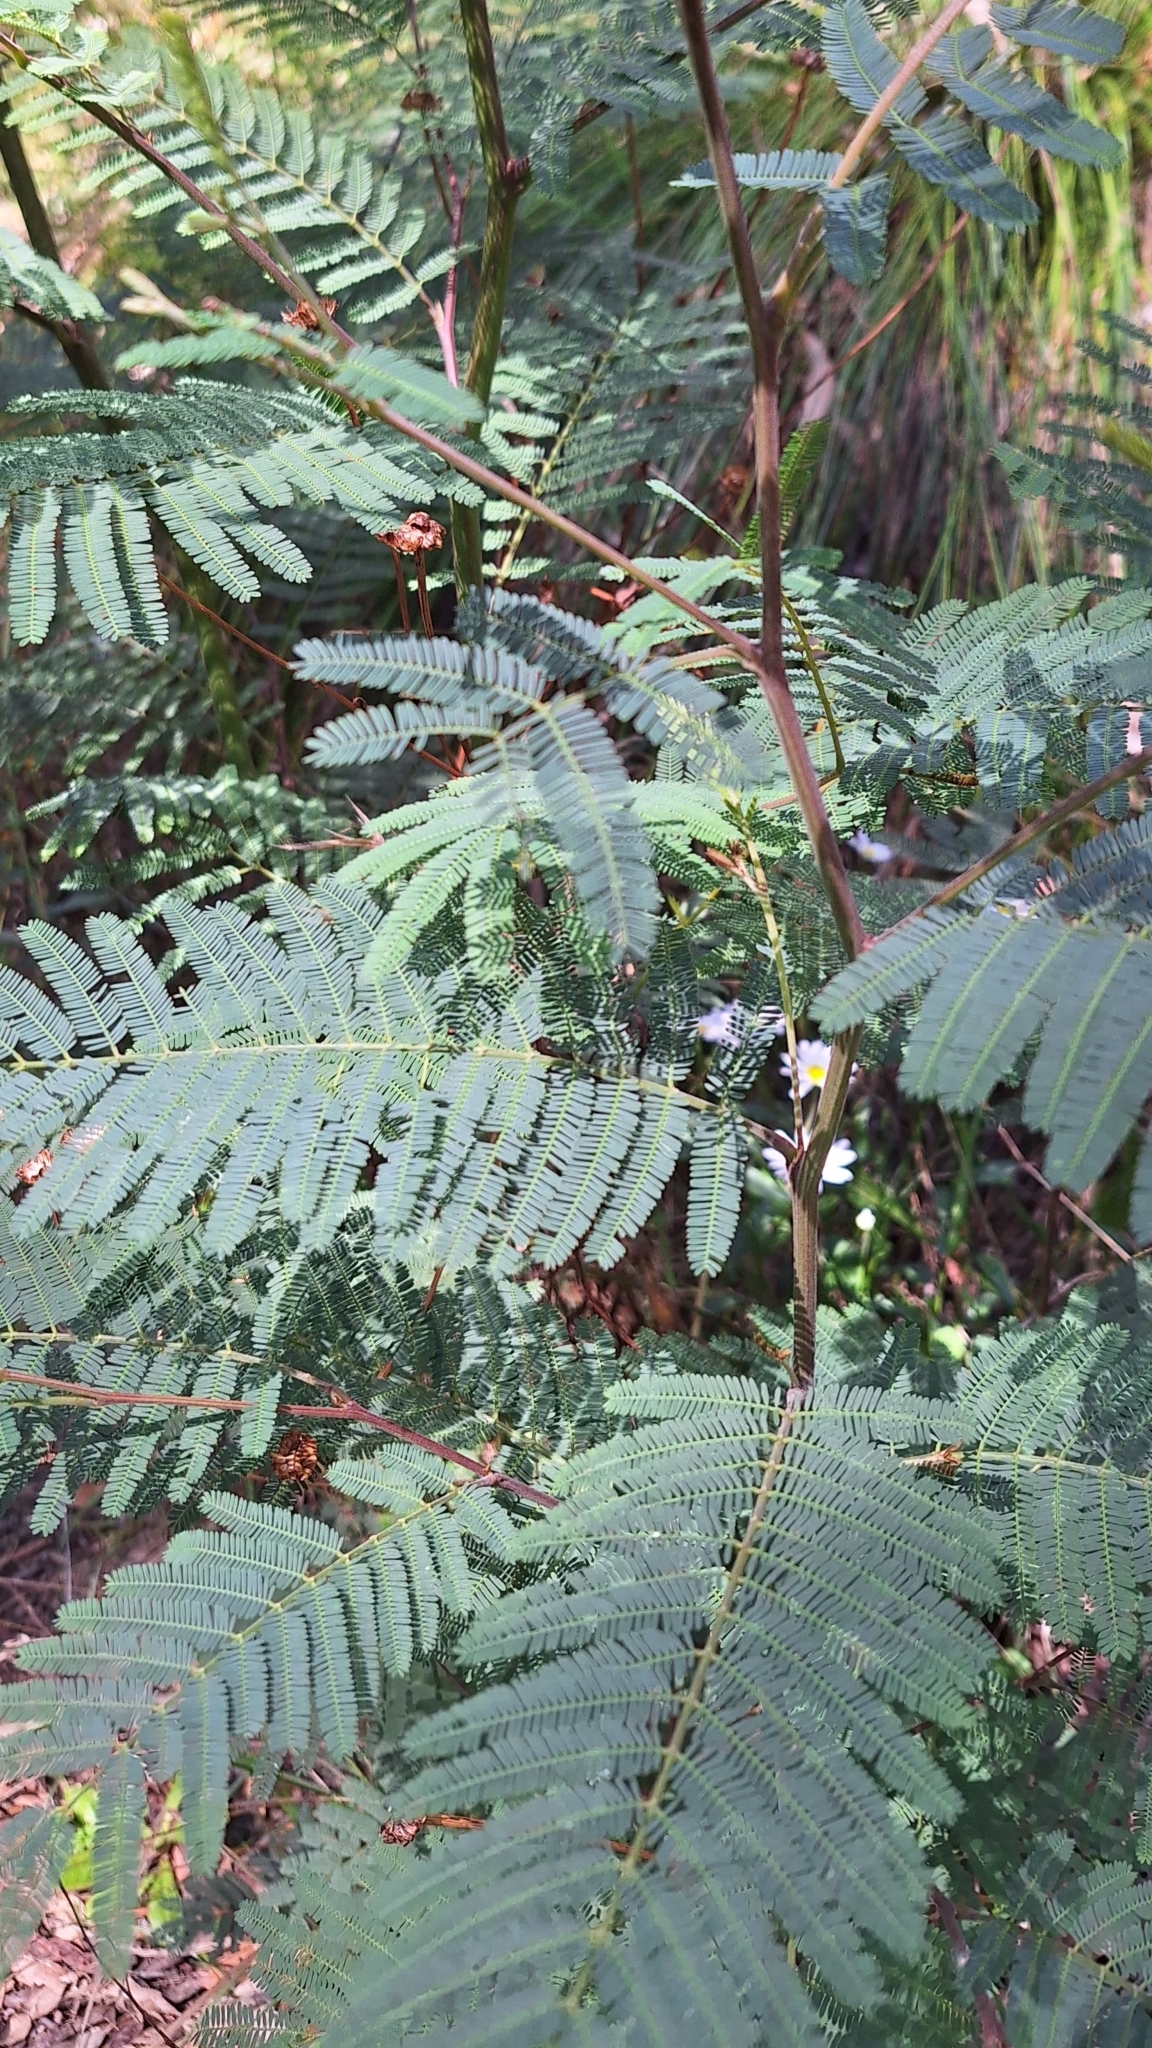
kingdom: Plantae
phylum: Tracheophyta
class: Magnoliopsida
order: Fabales
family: Fabaceae
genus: Acacia
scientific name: Acacia dealbata
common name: Silver wattle
